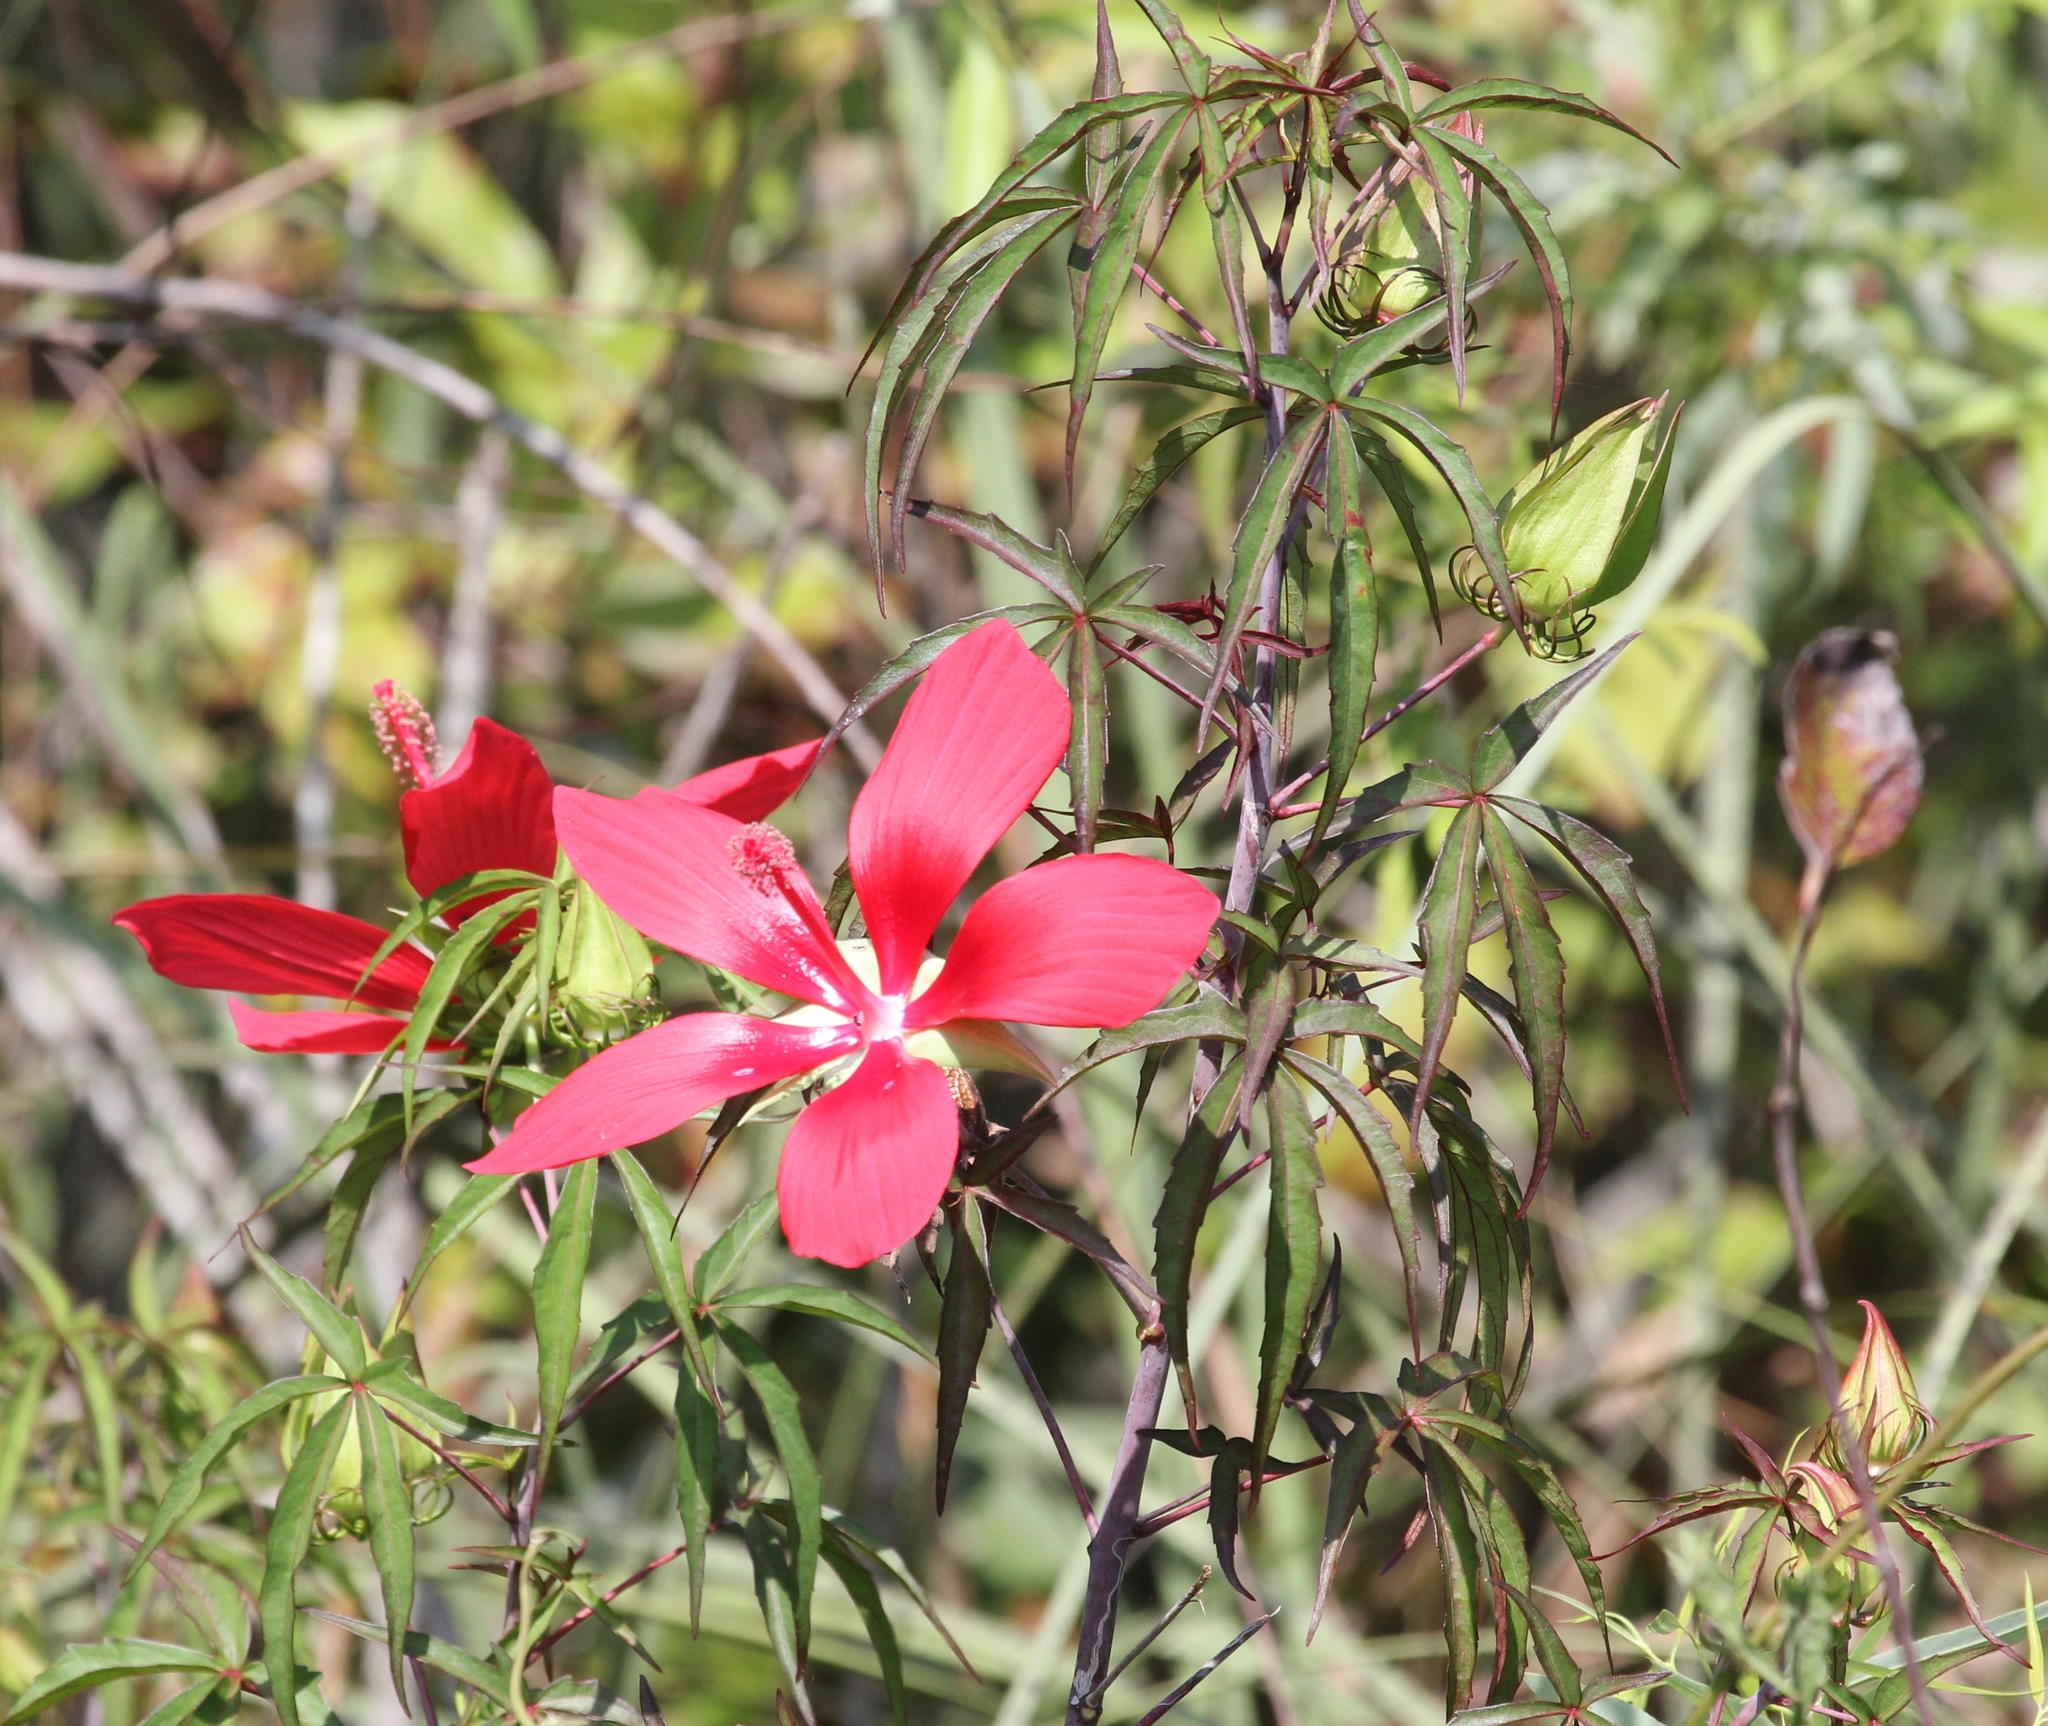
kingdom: Plantae
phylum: Tracheophyta
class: Magnoliopsida
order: Malvales
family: Malvaceae
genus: Hibiscus
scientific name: Hibiscus coccineus
